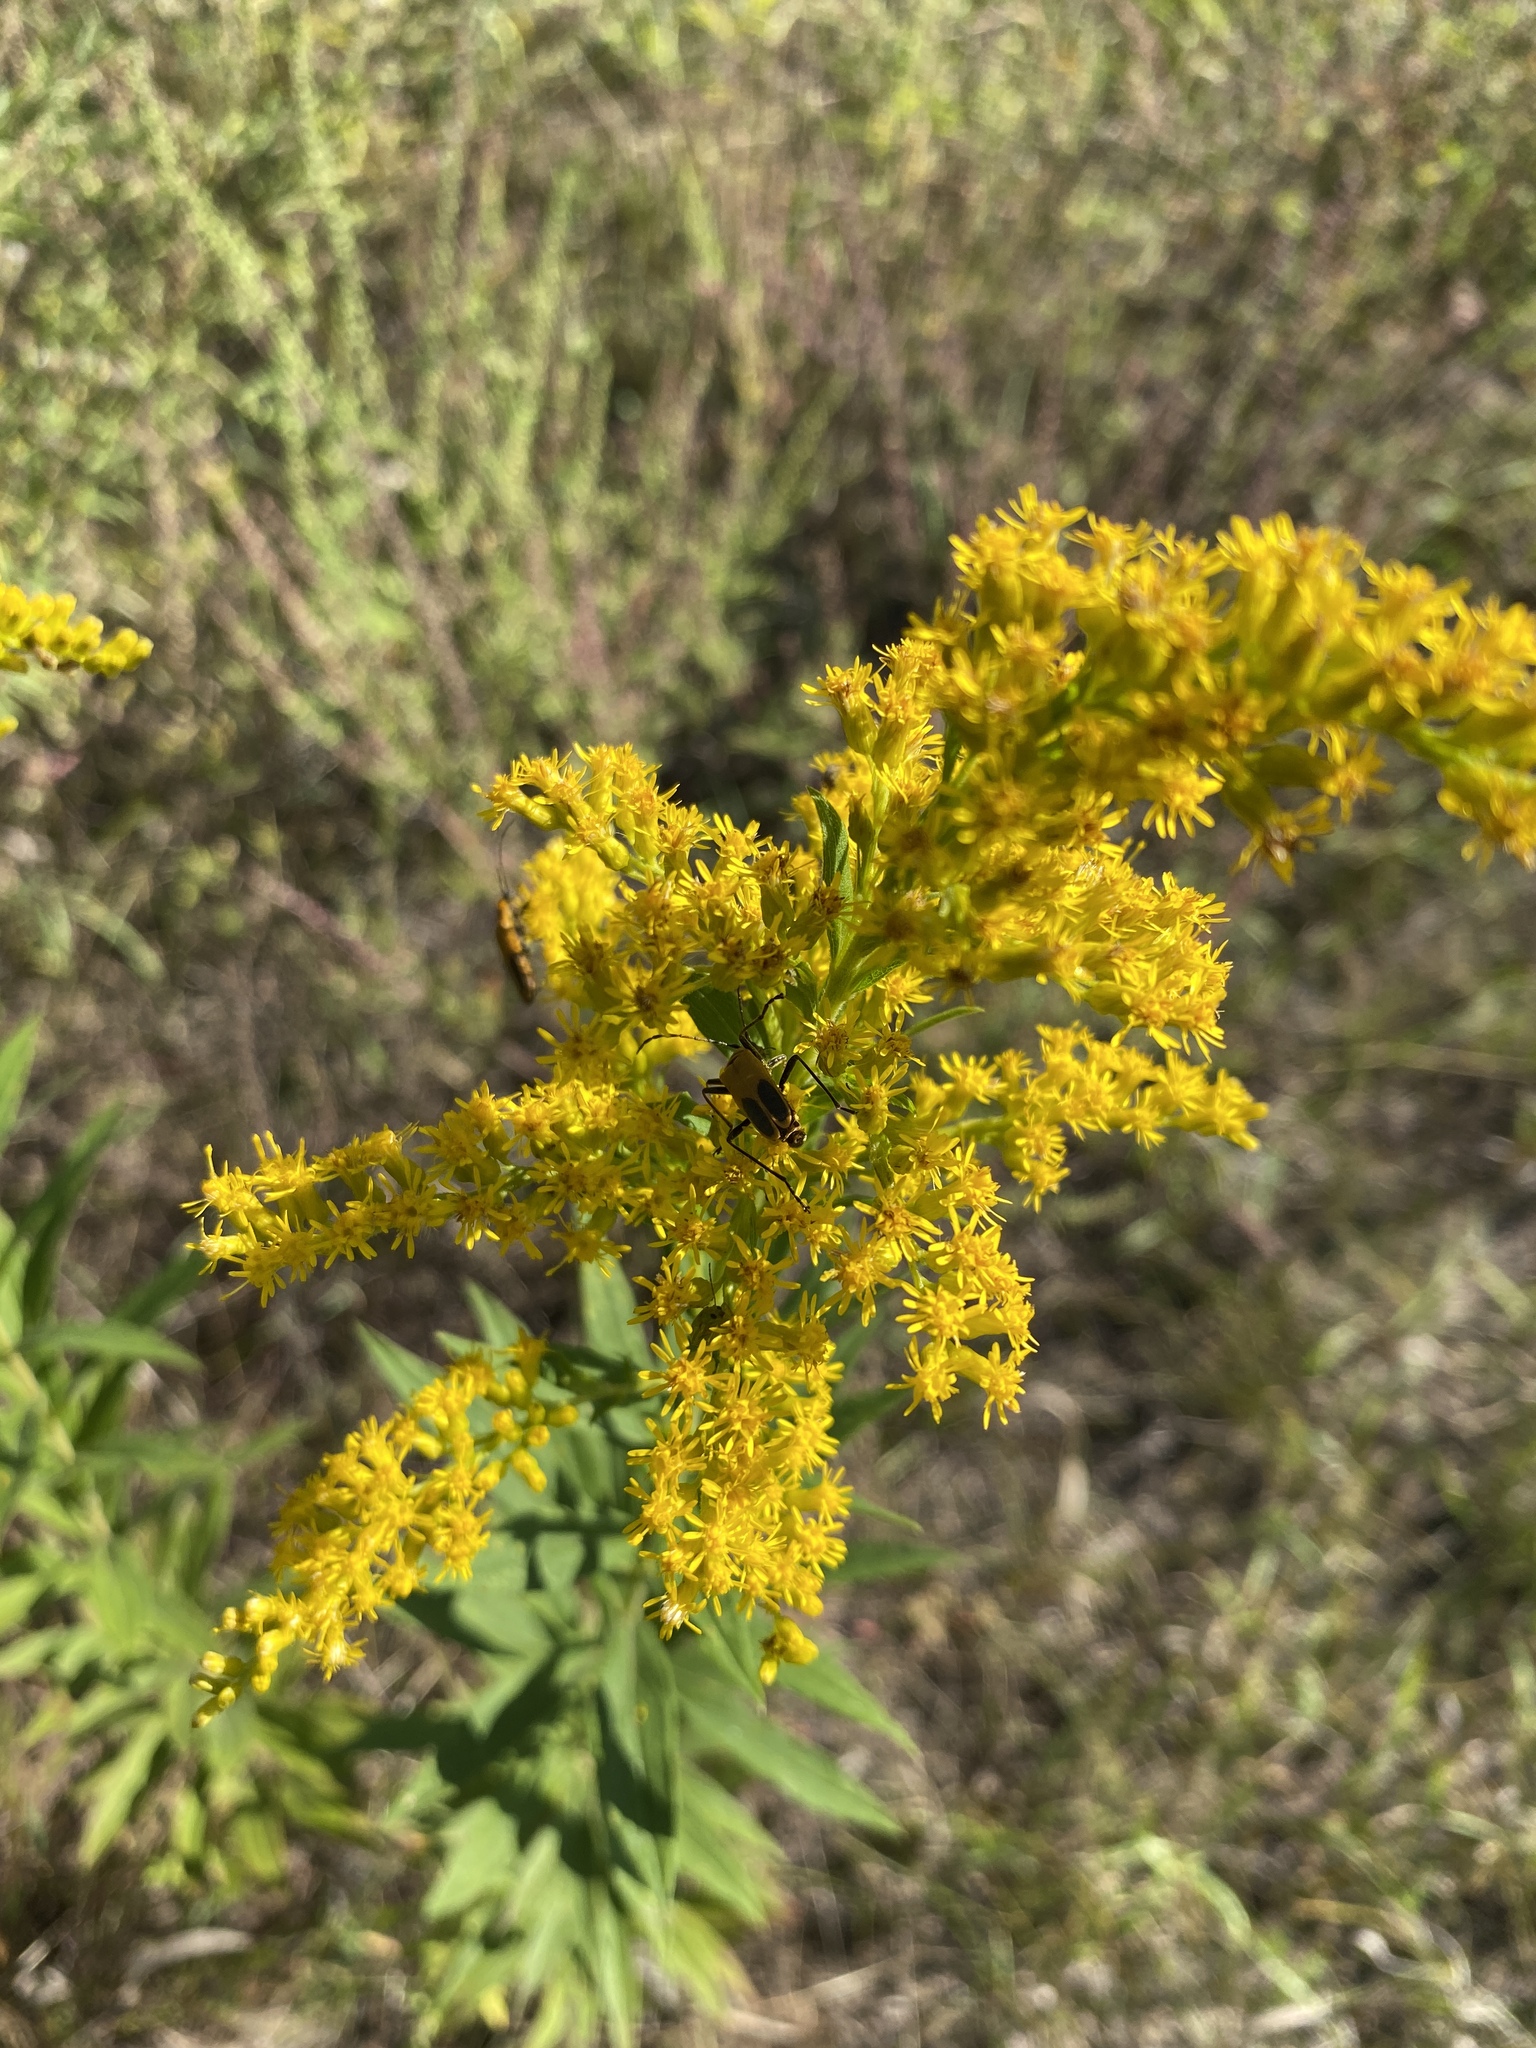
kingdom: Animalia
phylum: Arthropoda
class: Insecta
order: Coleoptera
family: Cantharidae
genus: Chauliognathus
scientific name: Chauliognathus pensylvanicus
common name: Goldenrod soldier beetle
